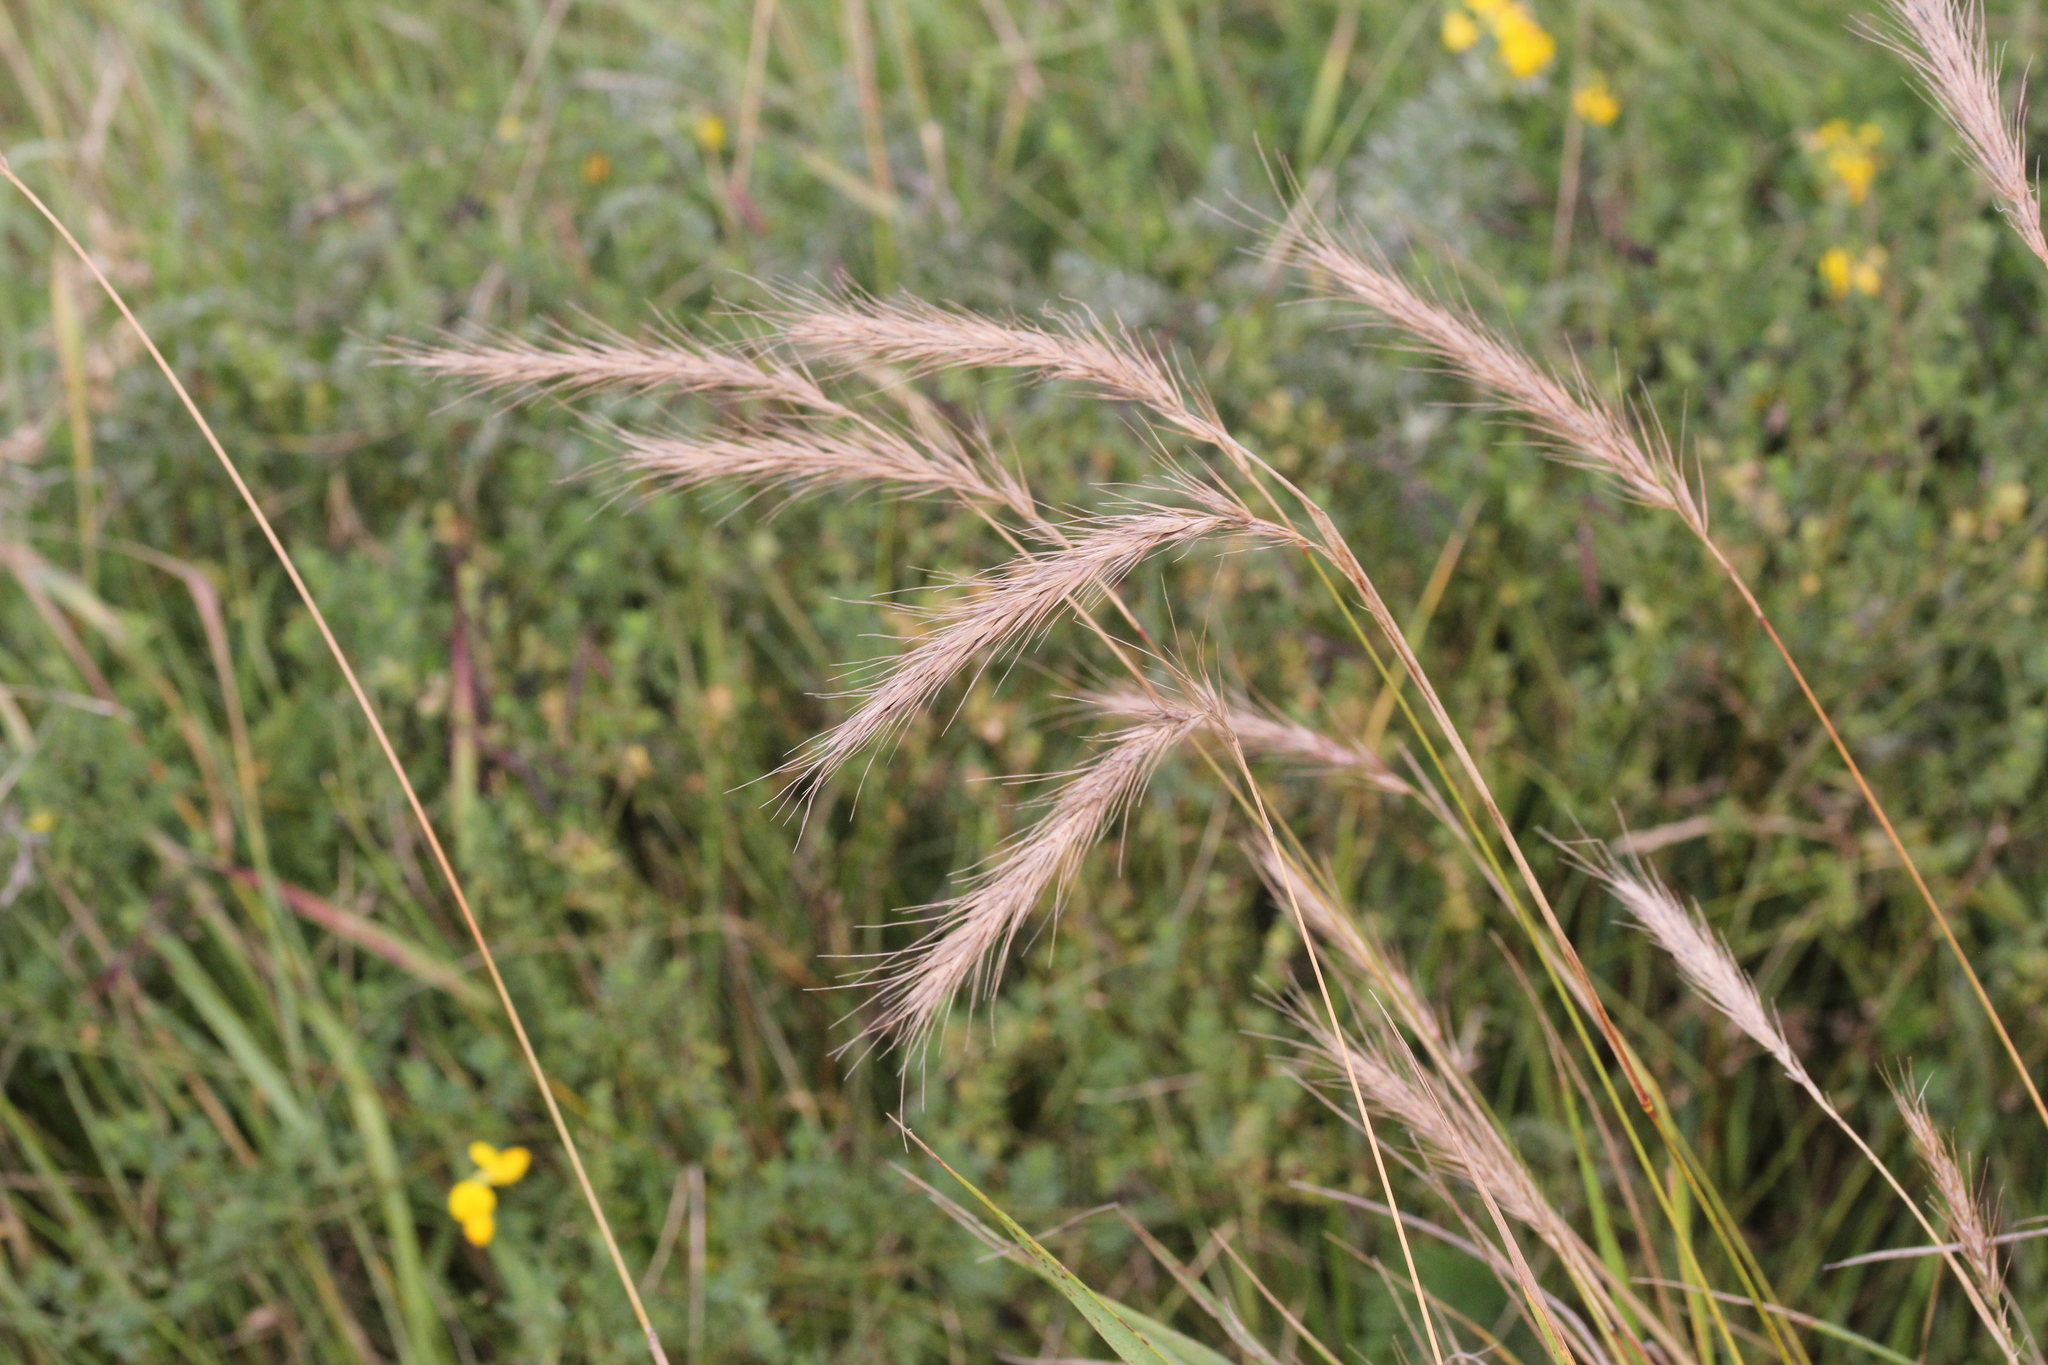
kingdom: Plantae
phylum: Tracheophyta
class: Liliopsida
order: Poales
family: Poaceae
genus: Elymus
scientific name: Elymus canadensis
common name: Canada wild rye
